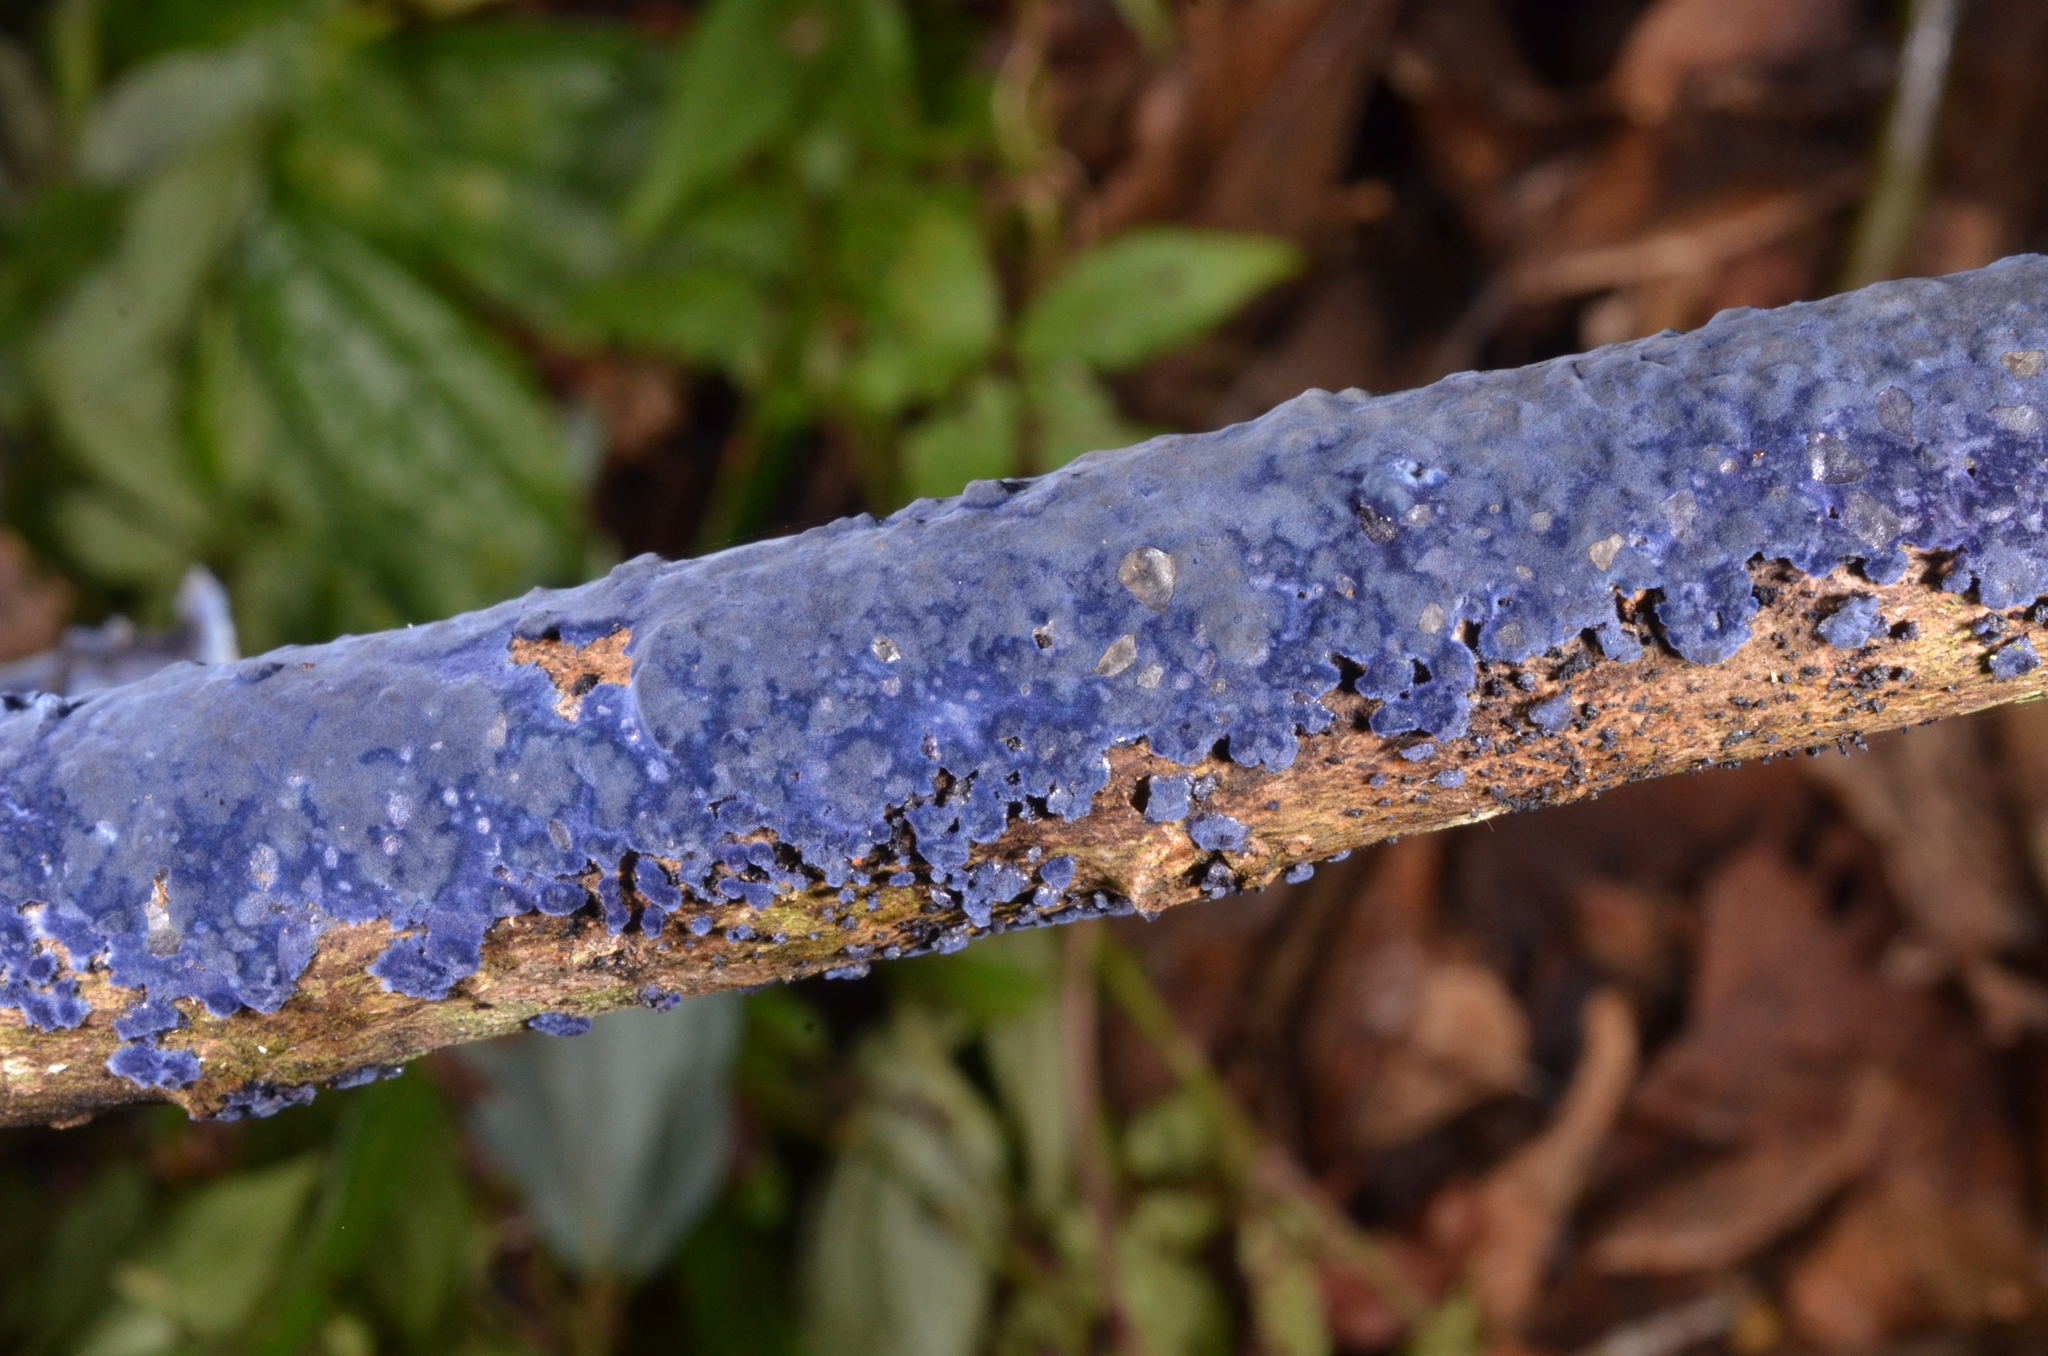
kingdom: Fungi
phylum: Basidiomycota
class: Agaricomycetes
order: Polyporales
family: Phanerochaetaceae
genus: Terana
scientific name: Terana coerulea
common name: Cobalt crust
